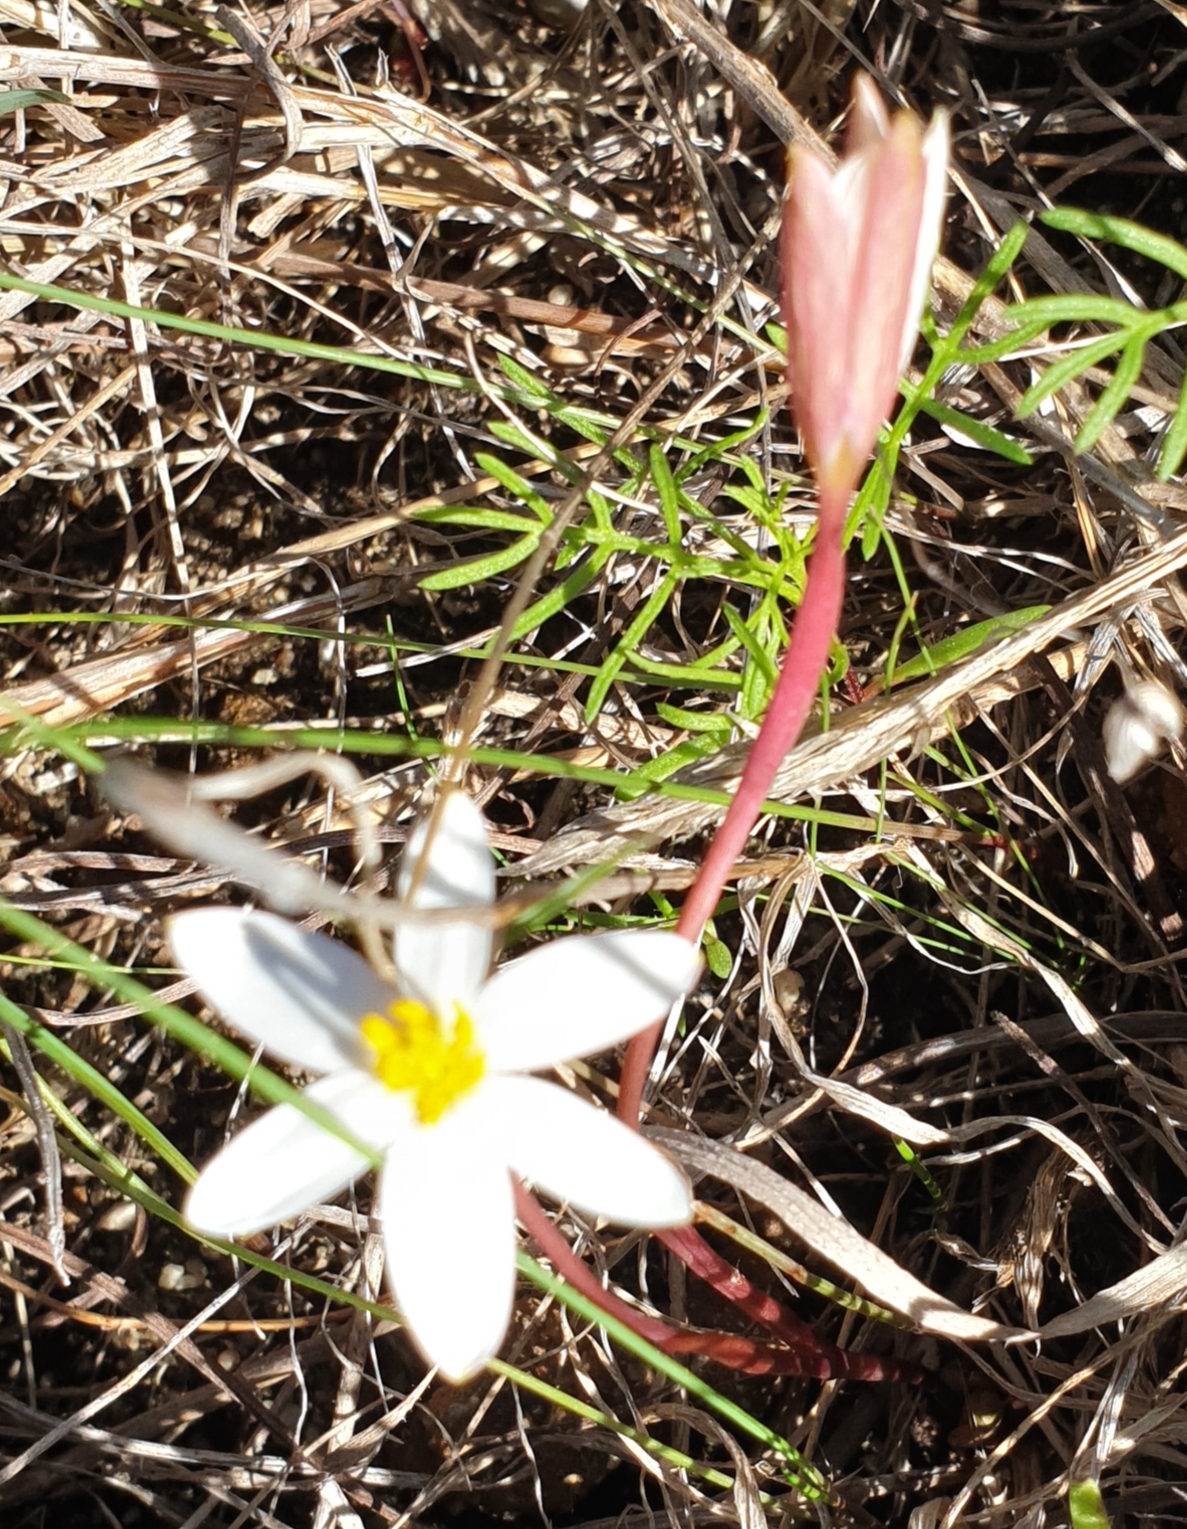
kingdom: Plantae
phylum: Tracheophyta
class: Liliopsida
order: Asparagales
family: Hypoxidaceae
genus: Pauridia
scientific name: Pauridia alba
